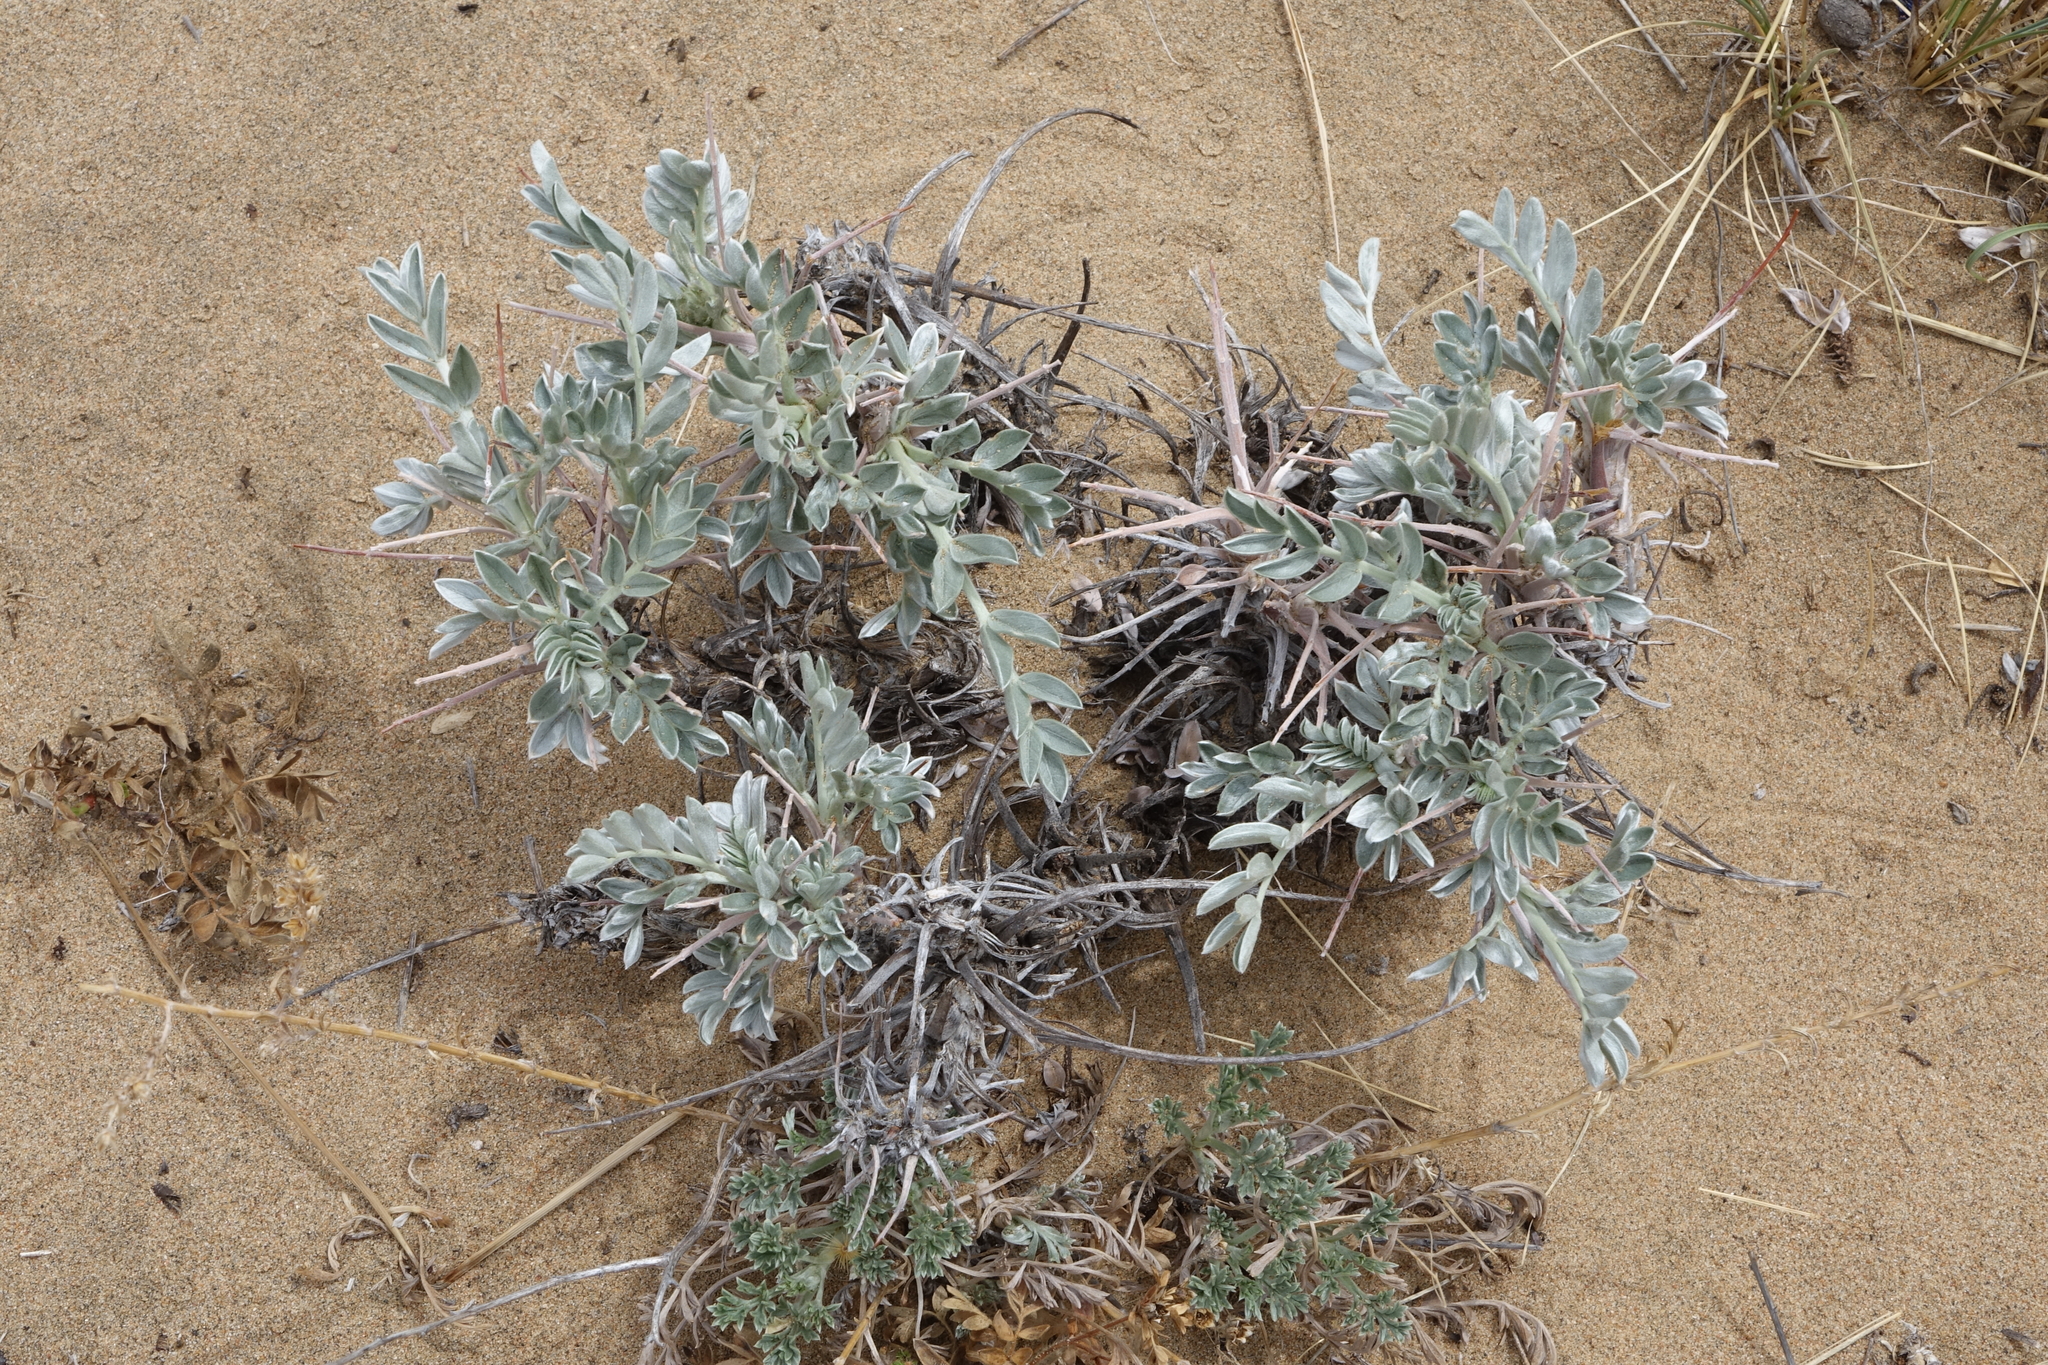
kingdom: Plantae
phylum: Tracheophyta
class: Magnoliopsida
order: Fabales
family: Fabaceae
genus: Oxytropis
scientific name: Oxytropis tragacanthoides
